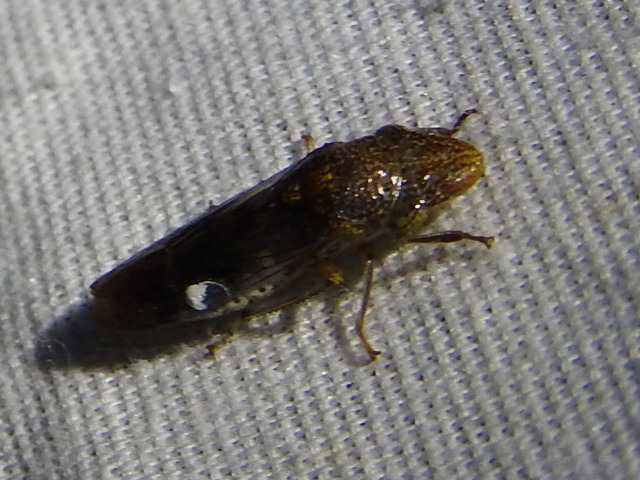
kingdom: Animalia
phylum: Arthropoda
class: Insecta
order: Hemiptera
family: Cicadellidae
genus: Homalodisca
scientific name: Homalodisca vitripennis
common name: Glassy-winged sharpshooter
